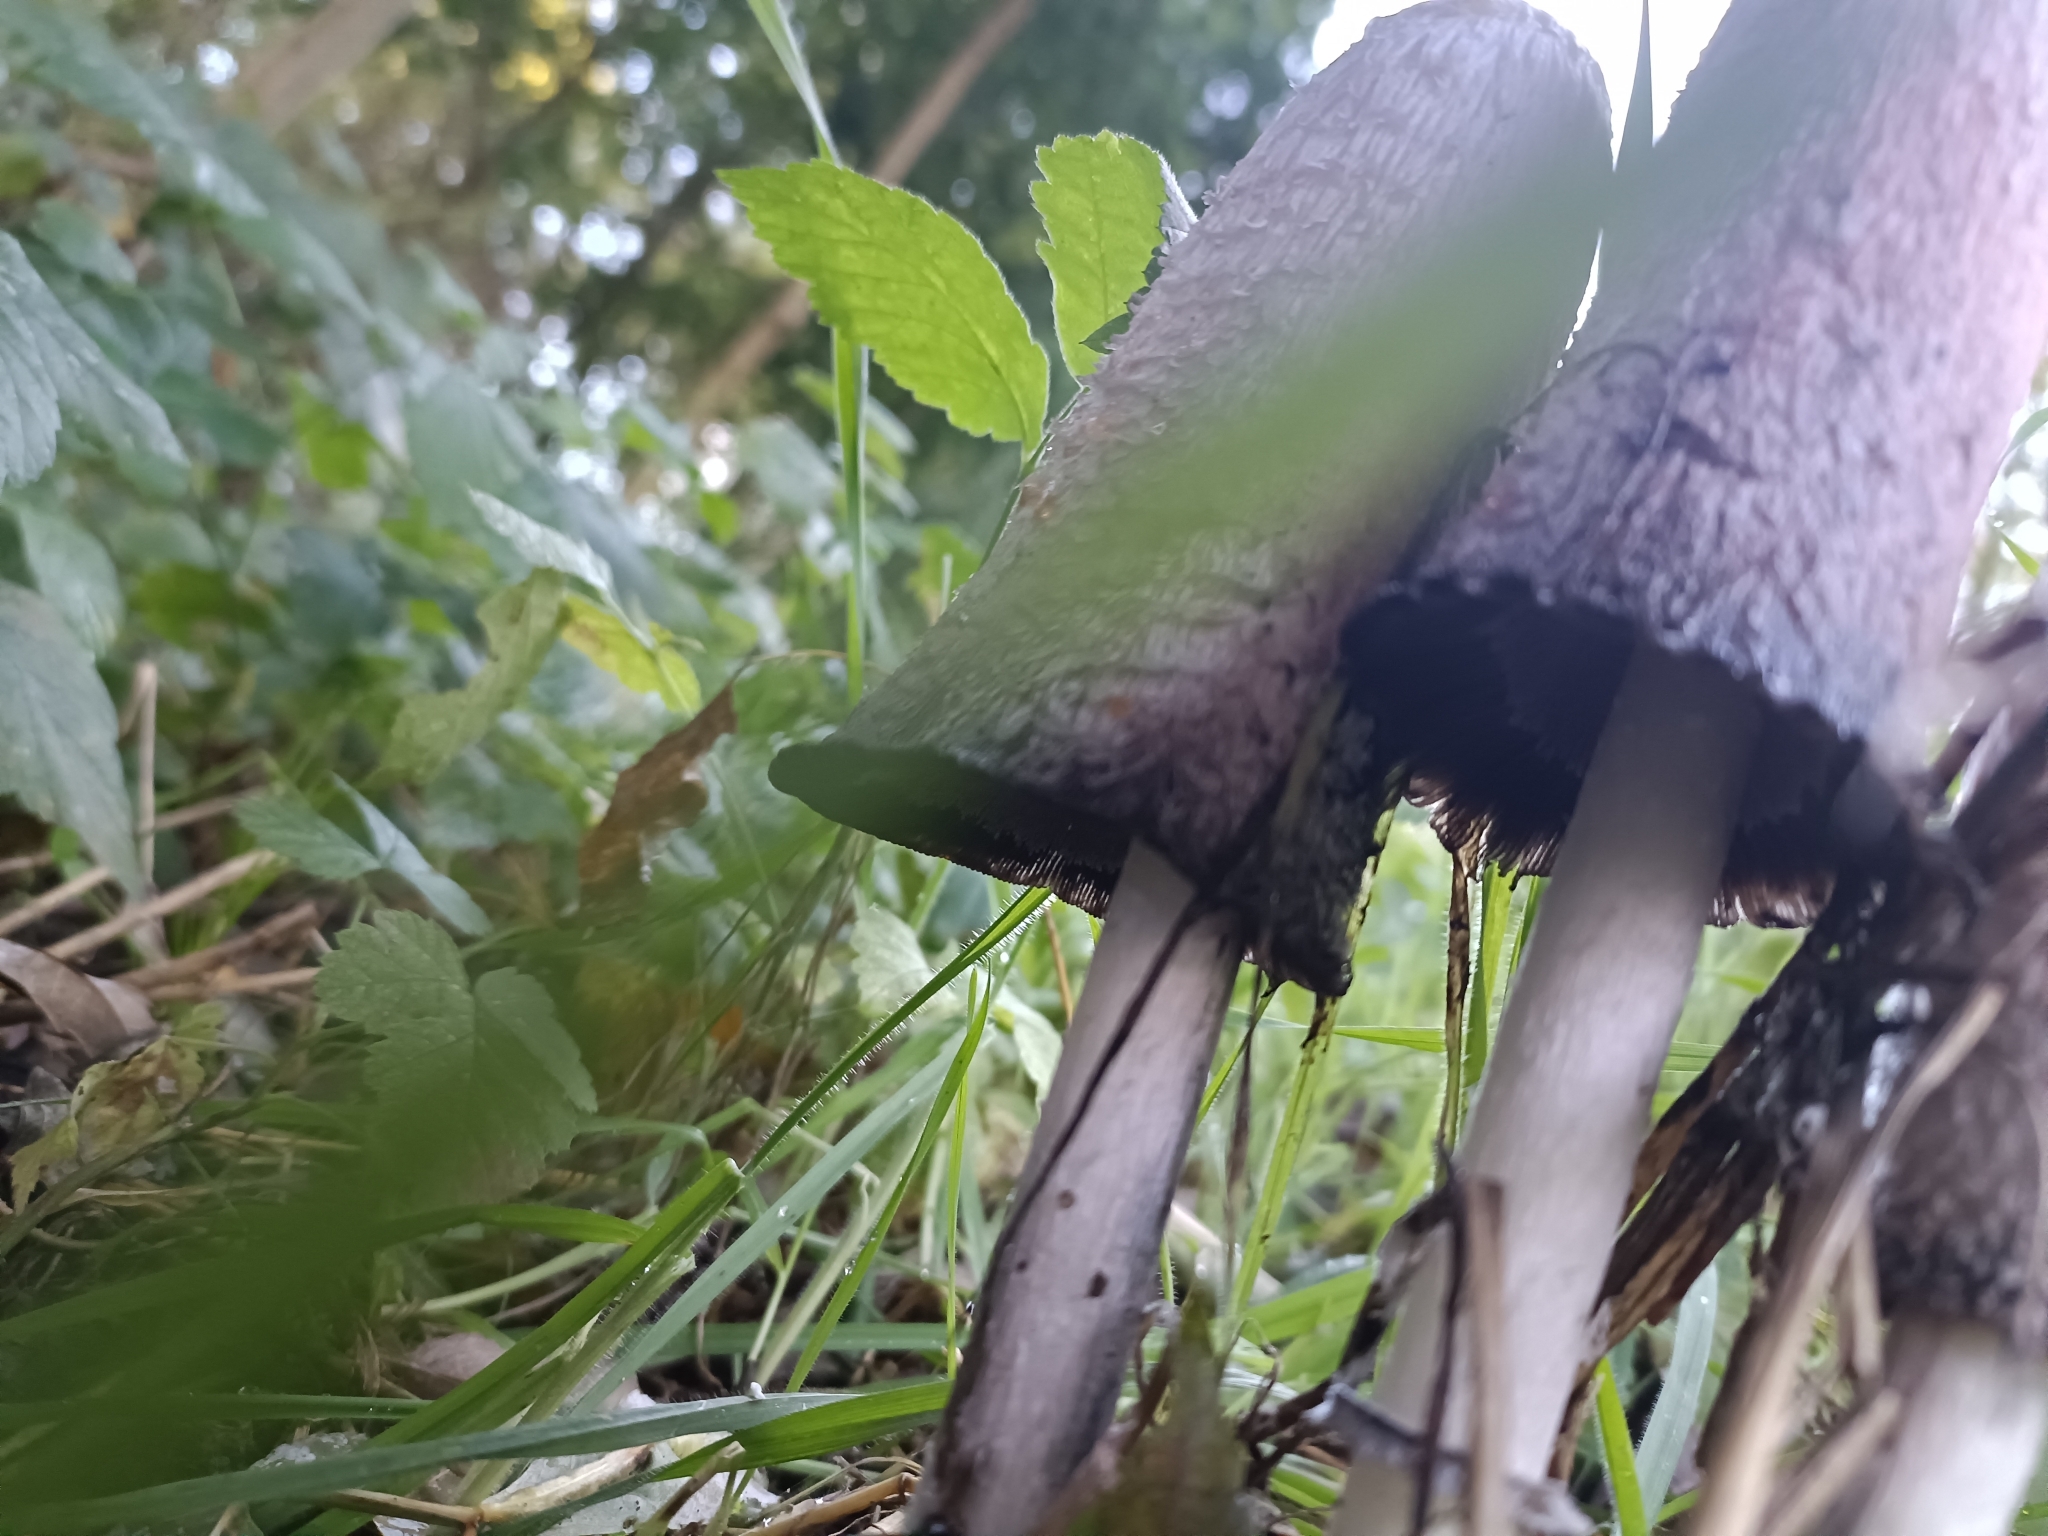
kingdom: Fungi
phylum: Basidiomycota
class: Agaricomycetes
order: Agaricales
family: Agaricaceae
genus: Coprinus
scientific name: Coprinus comatus
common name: Lawyer's wig
